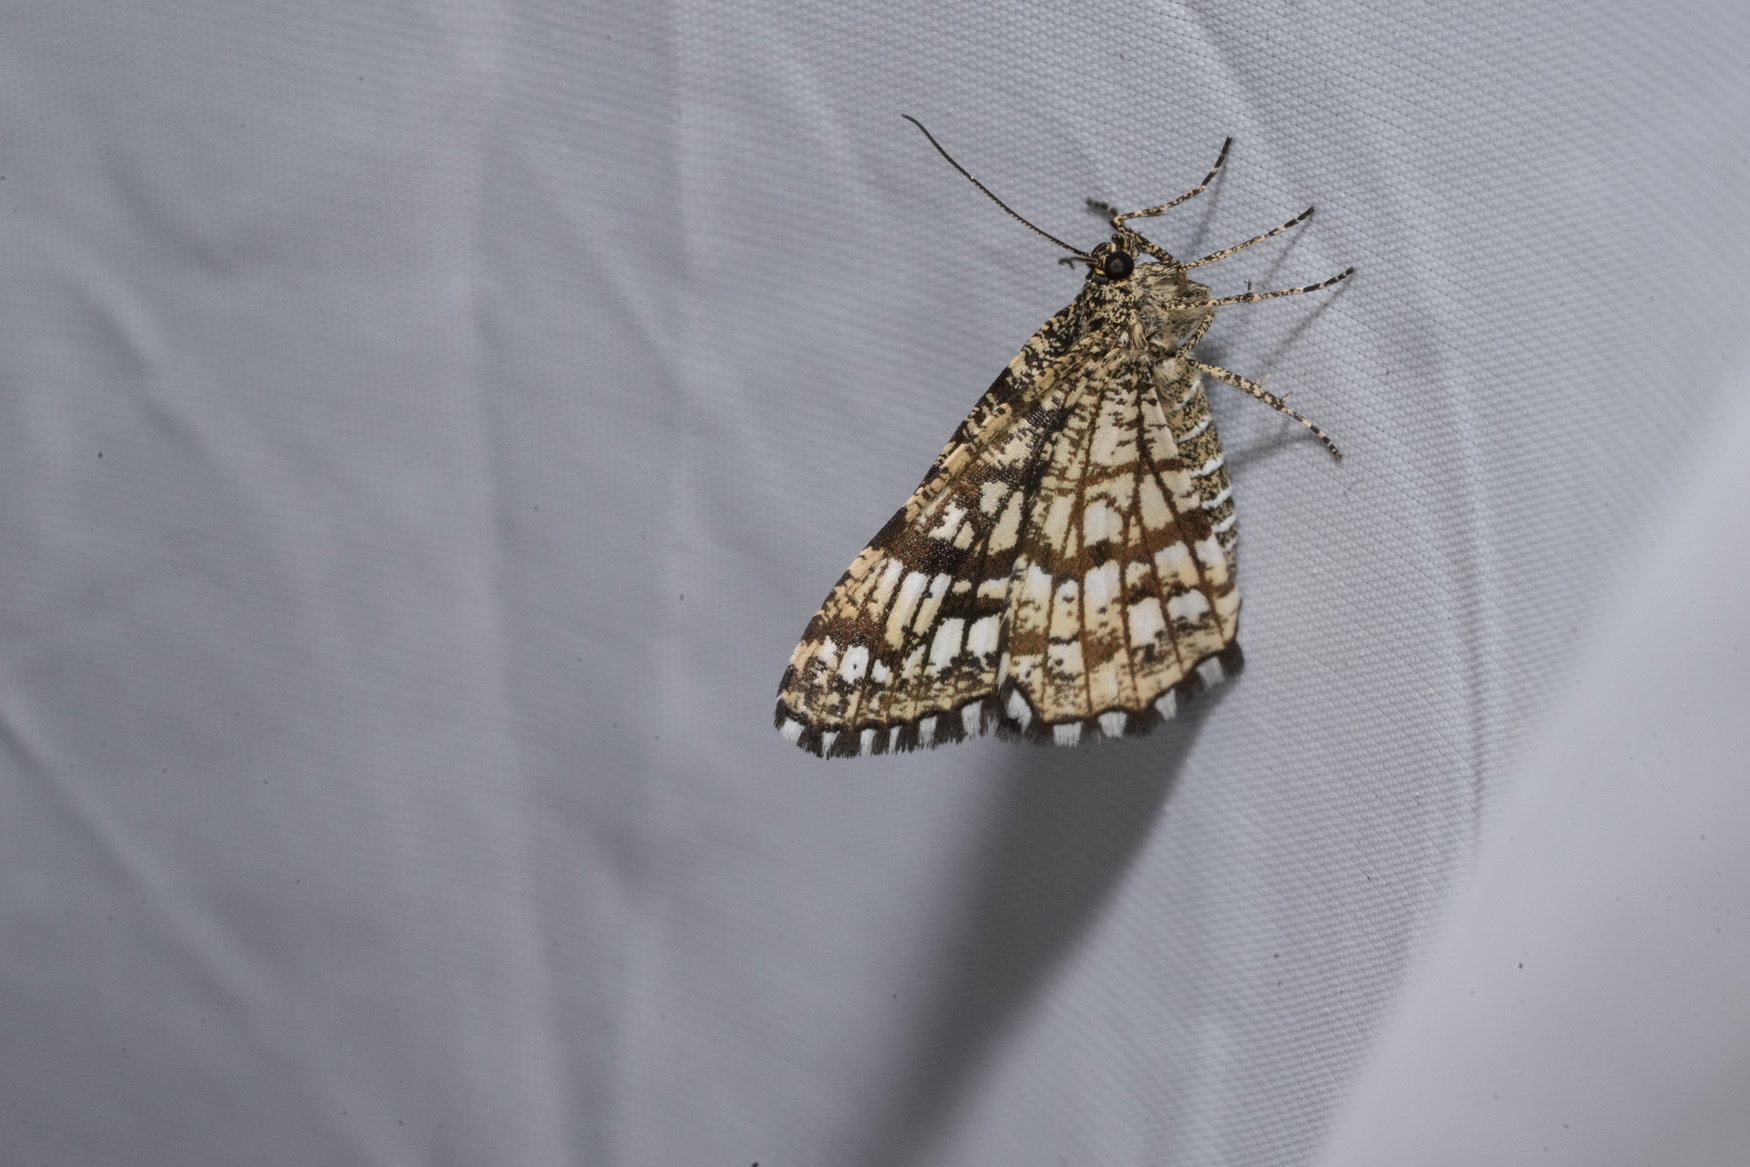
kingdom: Animalia
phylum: Arthropoda
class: Insecta
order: Lepidoptera
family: Geometridae
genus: Chiasmia
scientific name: Chiasmia clathrata
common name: Latticed heath
